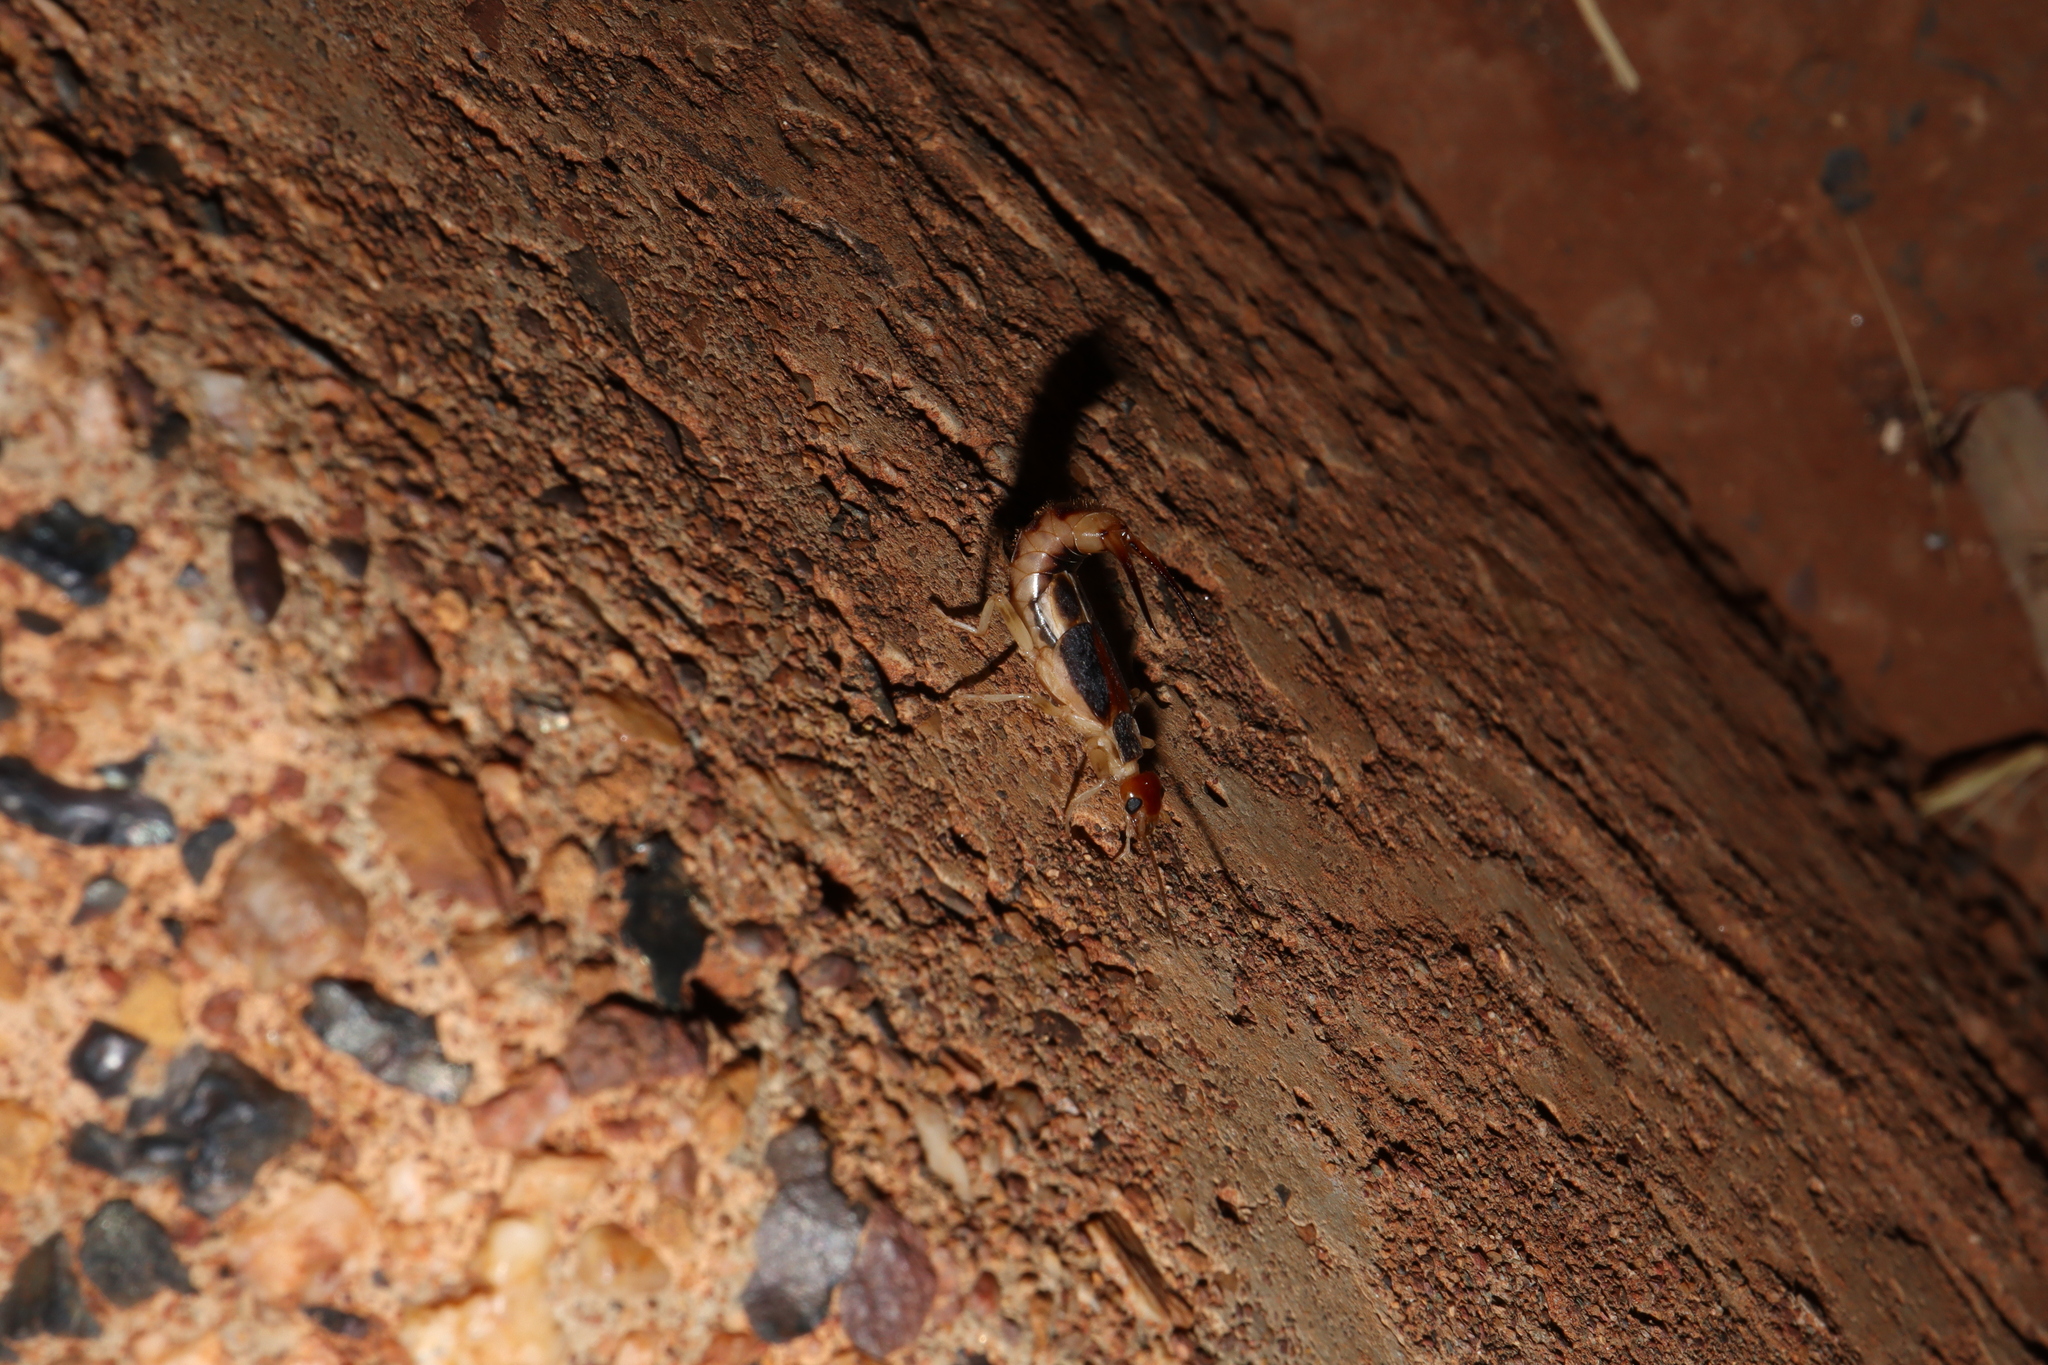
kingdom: Animalia
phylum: Arthropoda
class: Insecta
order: Dermaptera
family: Labiduridae
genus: Labidura
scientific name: Labidura riparia
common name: Striped earwig
